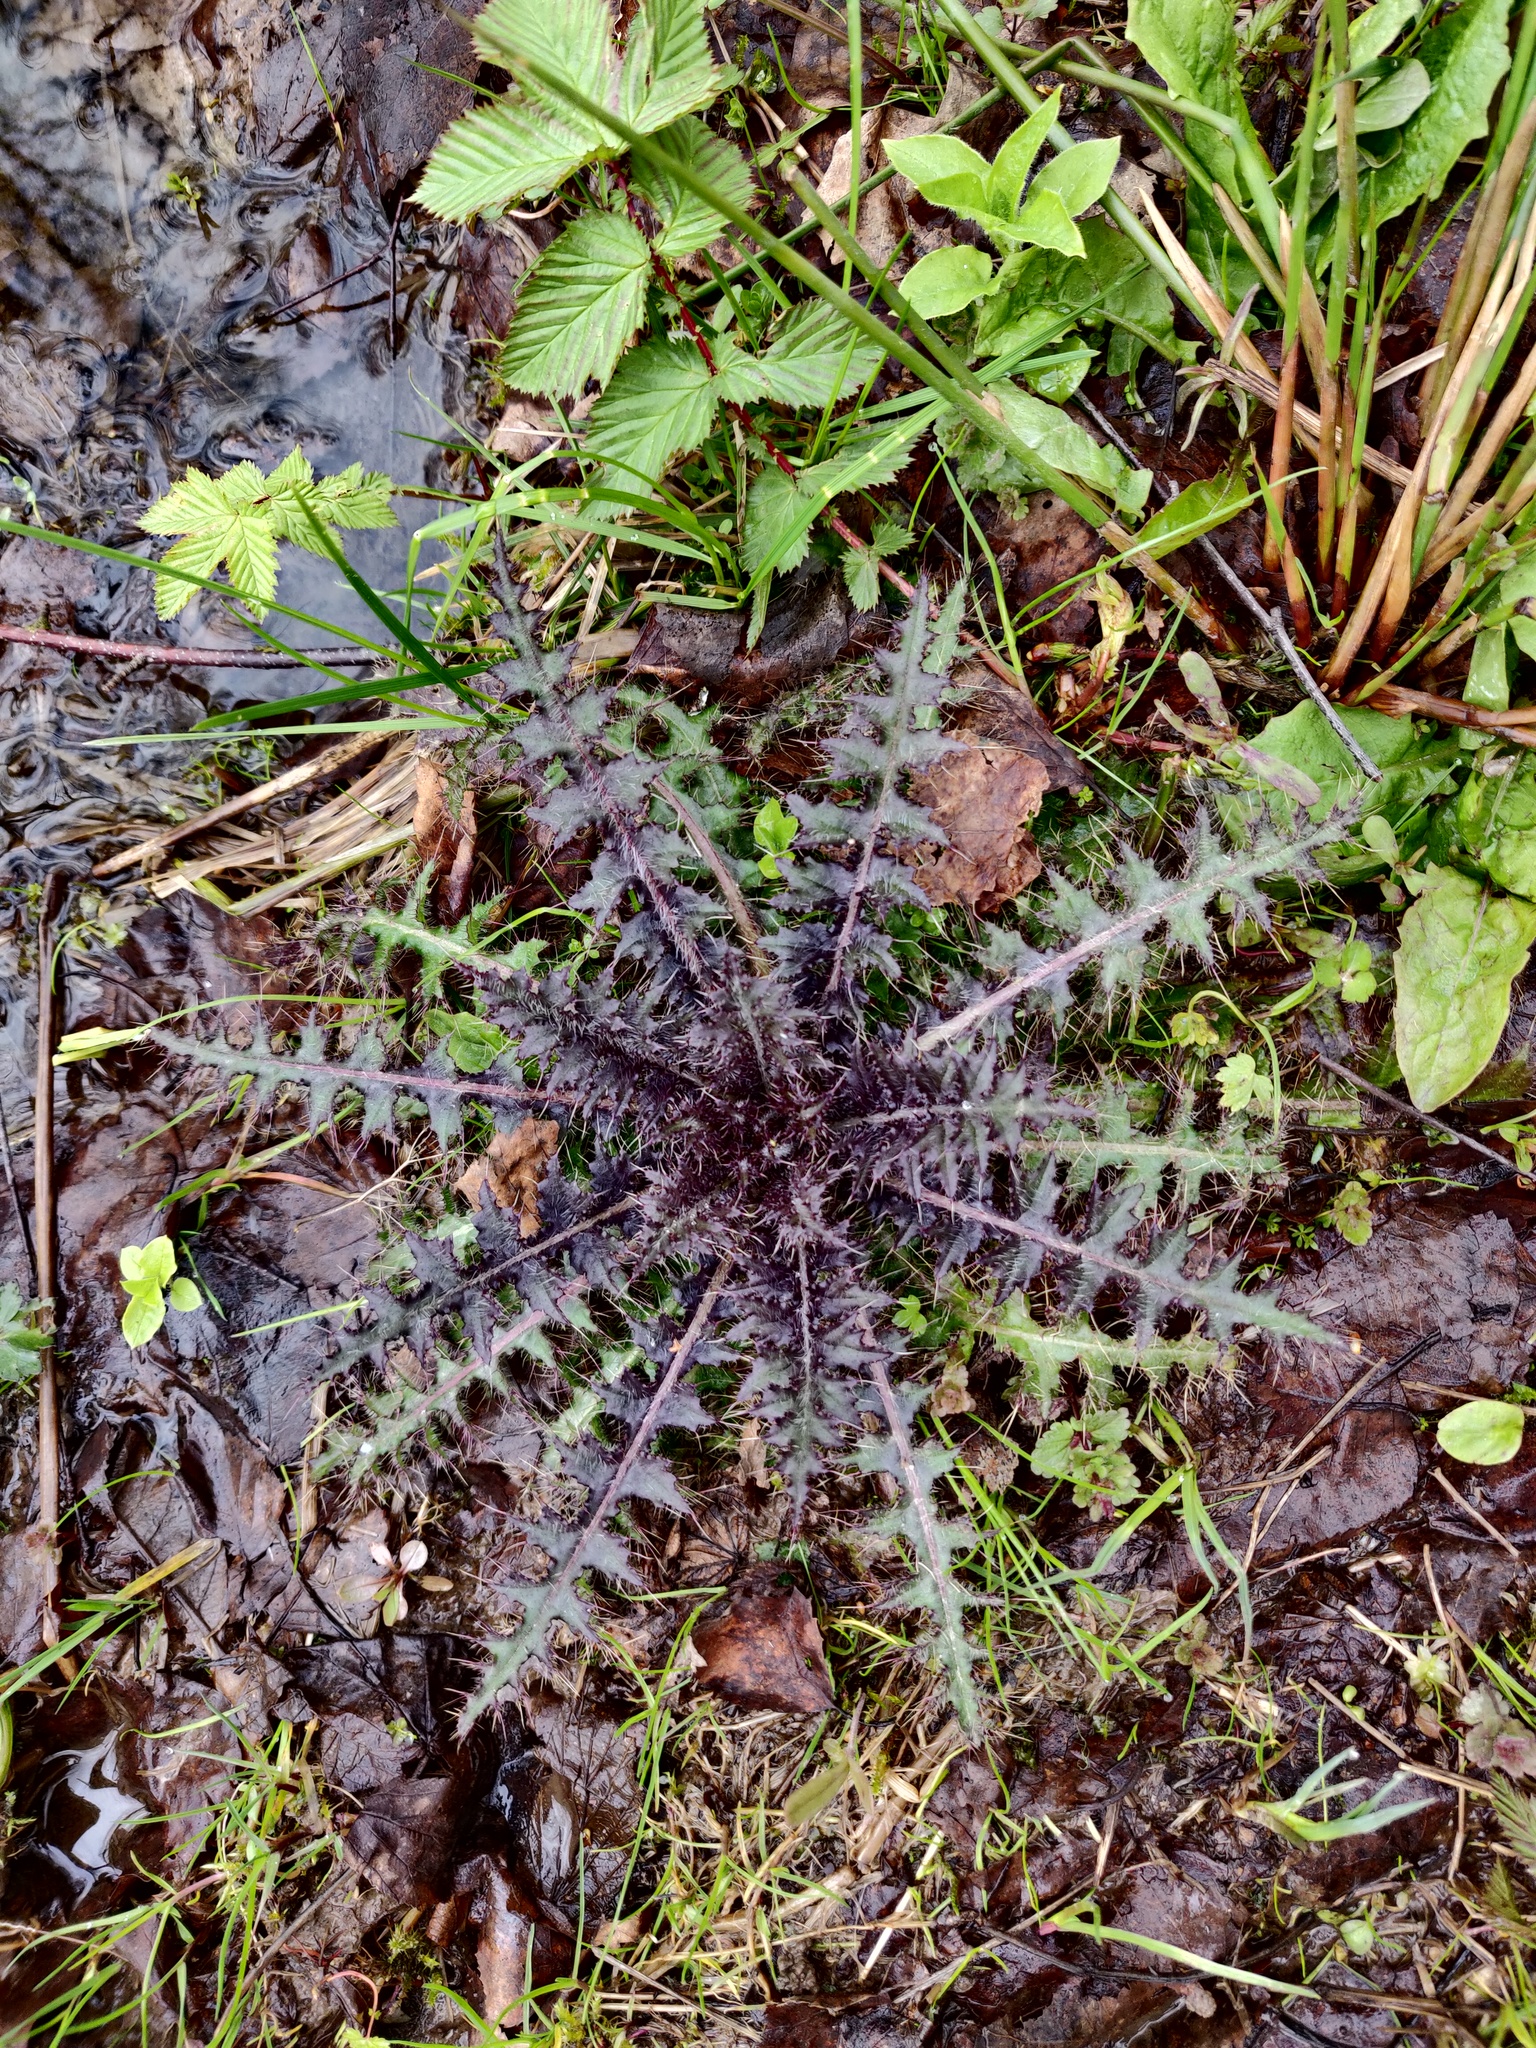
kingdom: Plantae
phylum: Tracheophyta
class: Magnoliopsida
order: Asterales
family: Asteraceae
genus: Cirsium
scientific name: Cirsium palustre
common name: Marsh thistle
